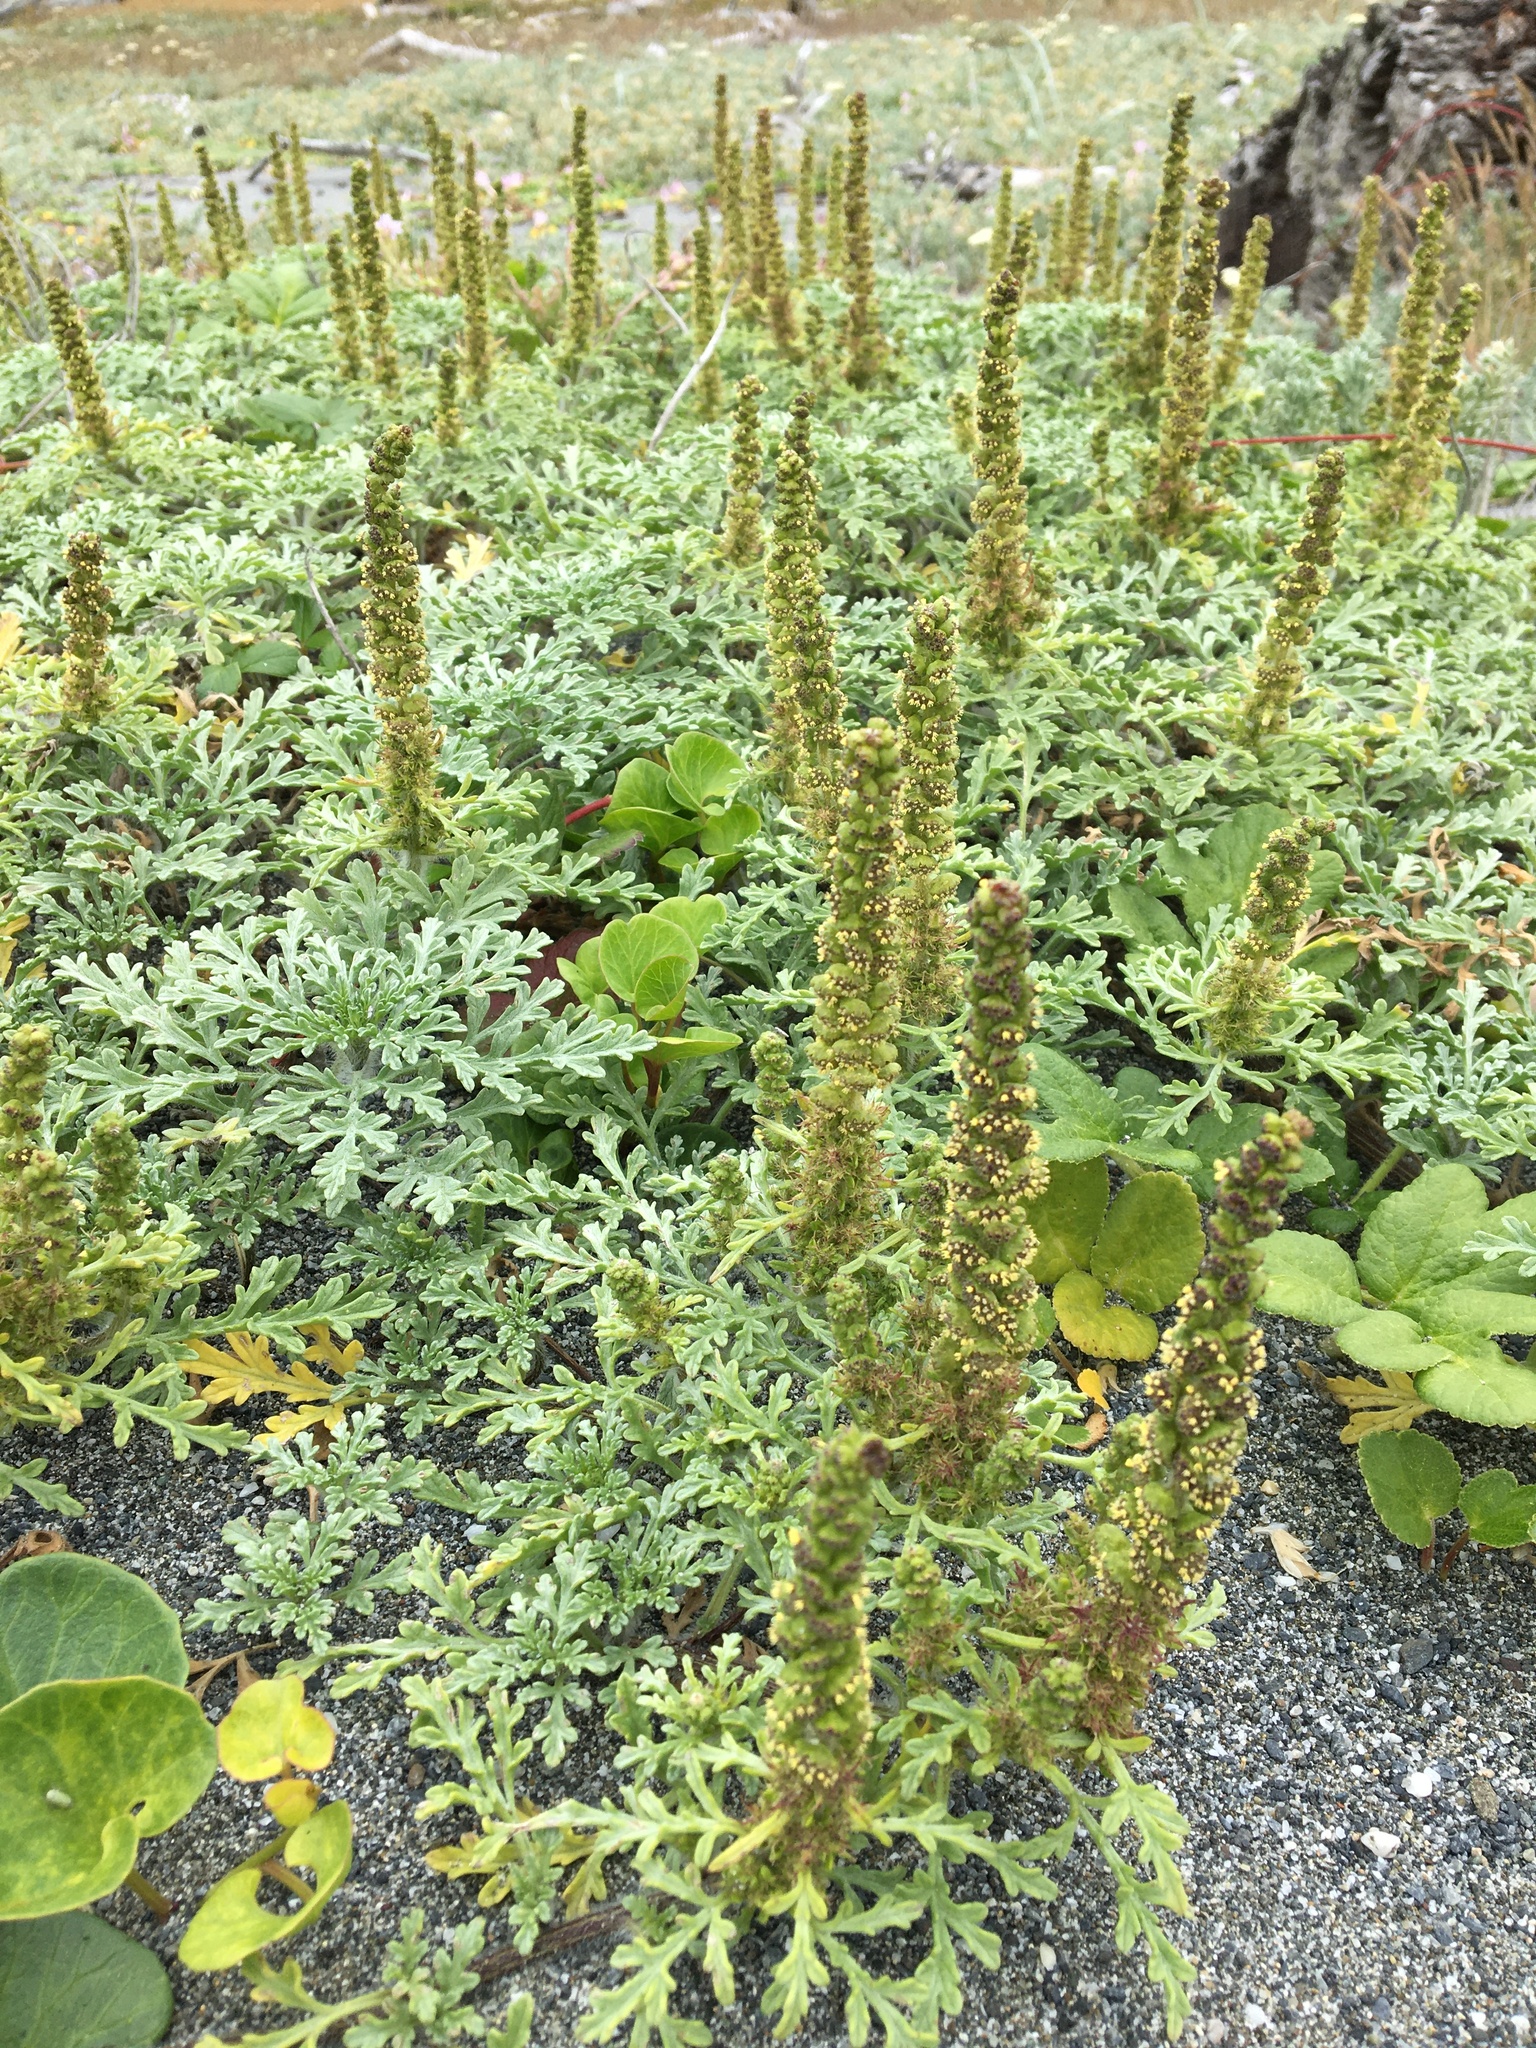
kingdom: Plantae
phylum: Tracheophyta
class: Magnoliopsida
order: Asterales
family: Asteraceae
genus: Ambrosia
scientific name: Ambrosia chamissonis
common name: Beachbur
